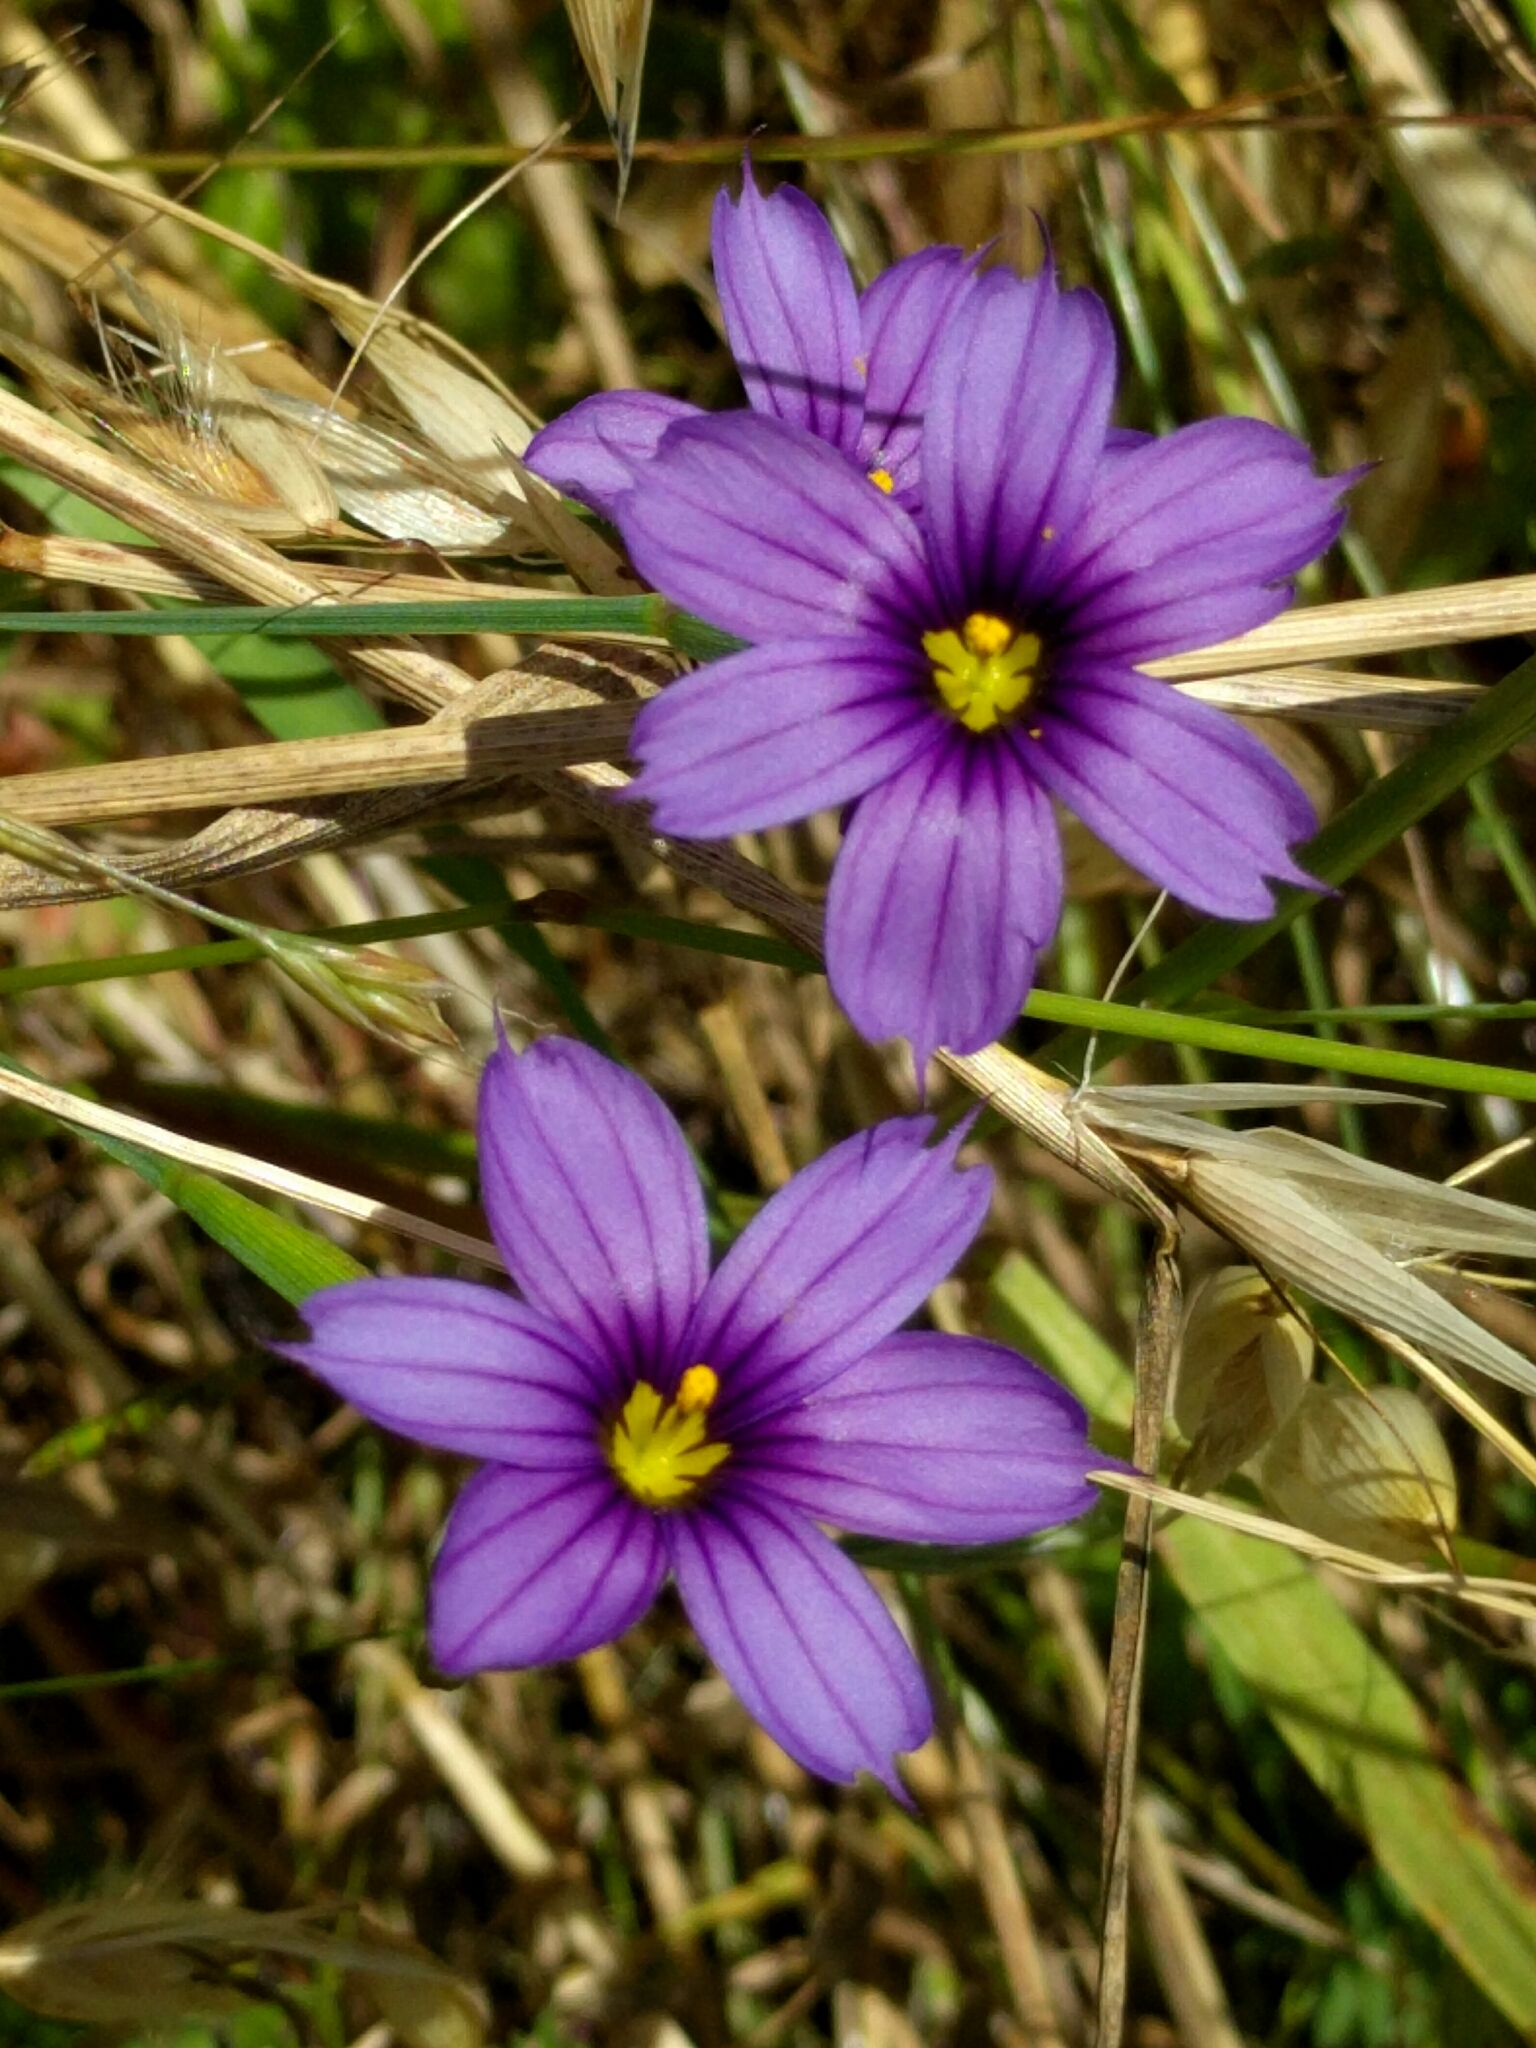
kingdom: Plantae
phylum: Tracheophyta
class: Liliopsida
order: Asparagales
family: Iridaceae
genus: Sisyrinchium
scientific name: Sisyrinchium bellum
